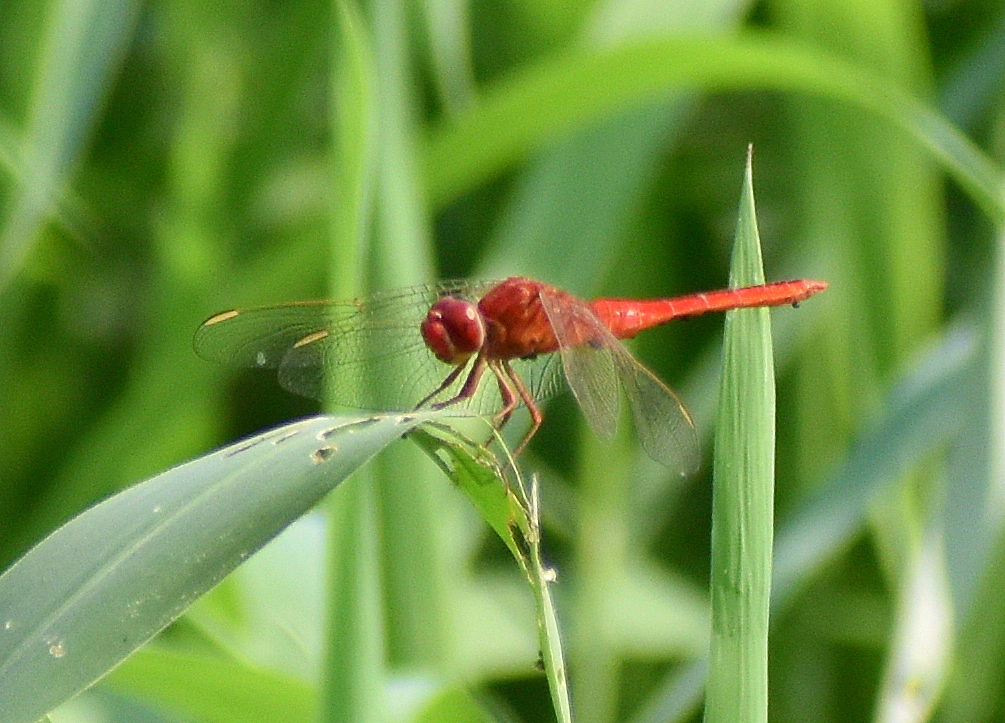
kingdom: Animalia
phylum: Arthropoda
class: Insecta
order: Odonata
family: Libellulidae
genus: Crocothemis
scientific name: Crocothemis servilia
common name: Scarlet skimmer
